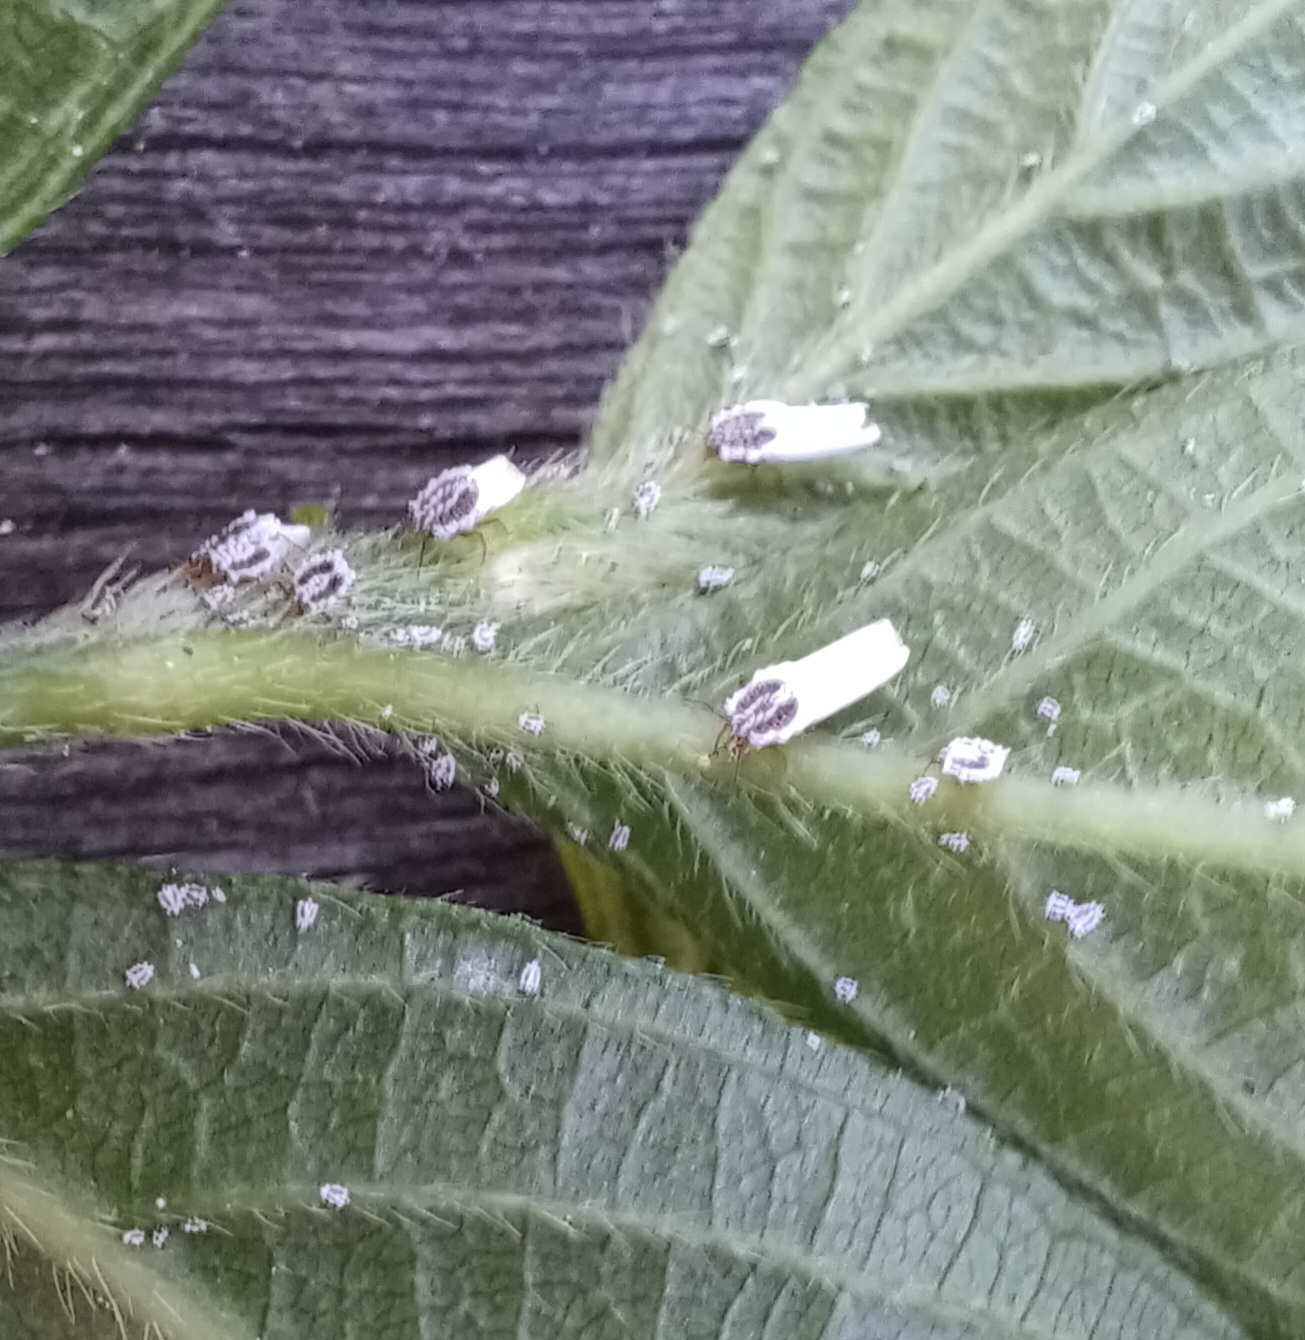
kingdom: Animalia
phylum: Arthropoda
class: Insecta
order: Hemiptera
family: Ortheziidae
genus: Insignorthezia
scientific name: Insignorthezia insignis
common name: Greenhouse orthezia
